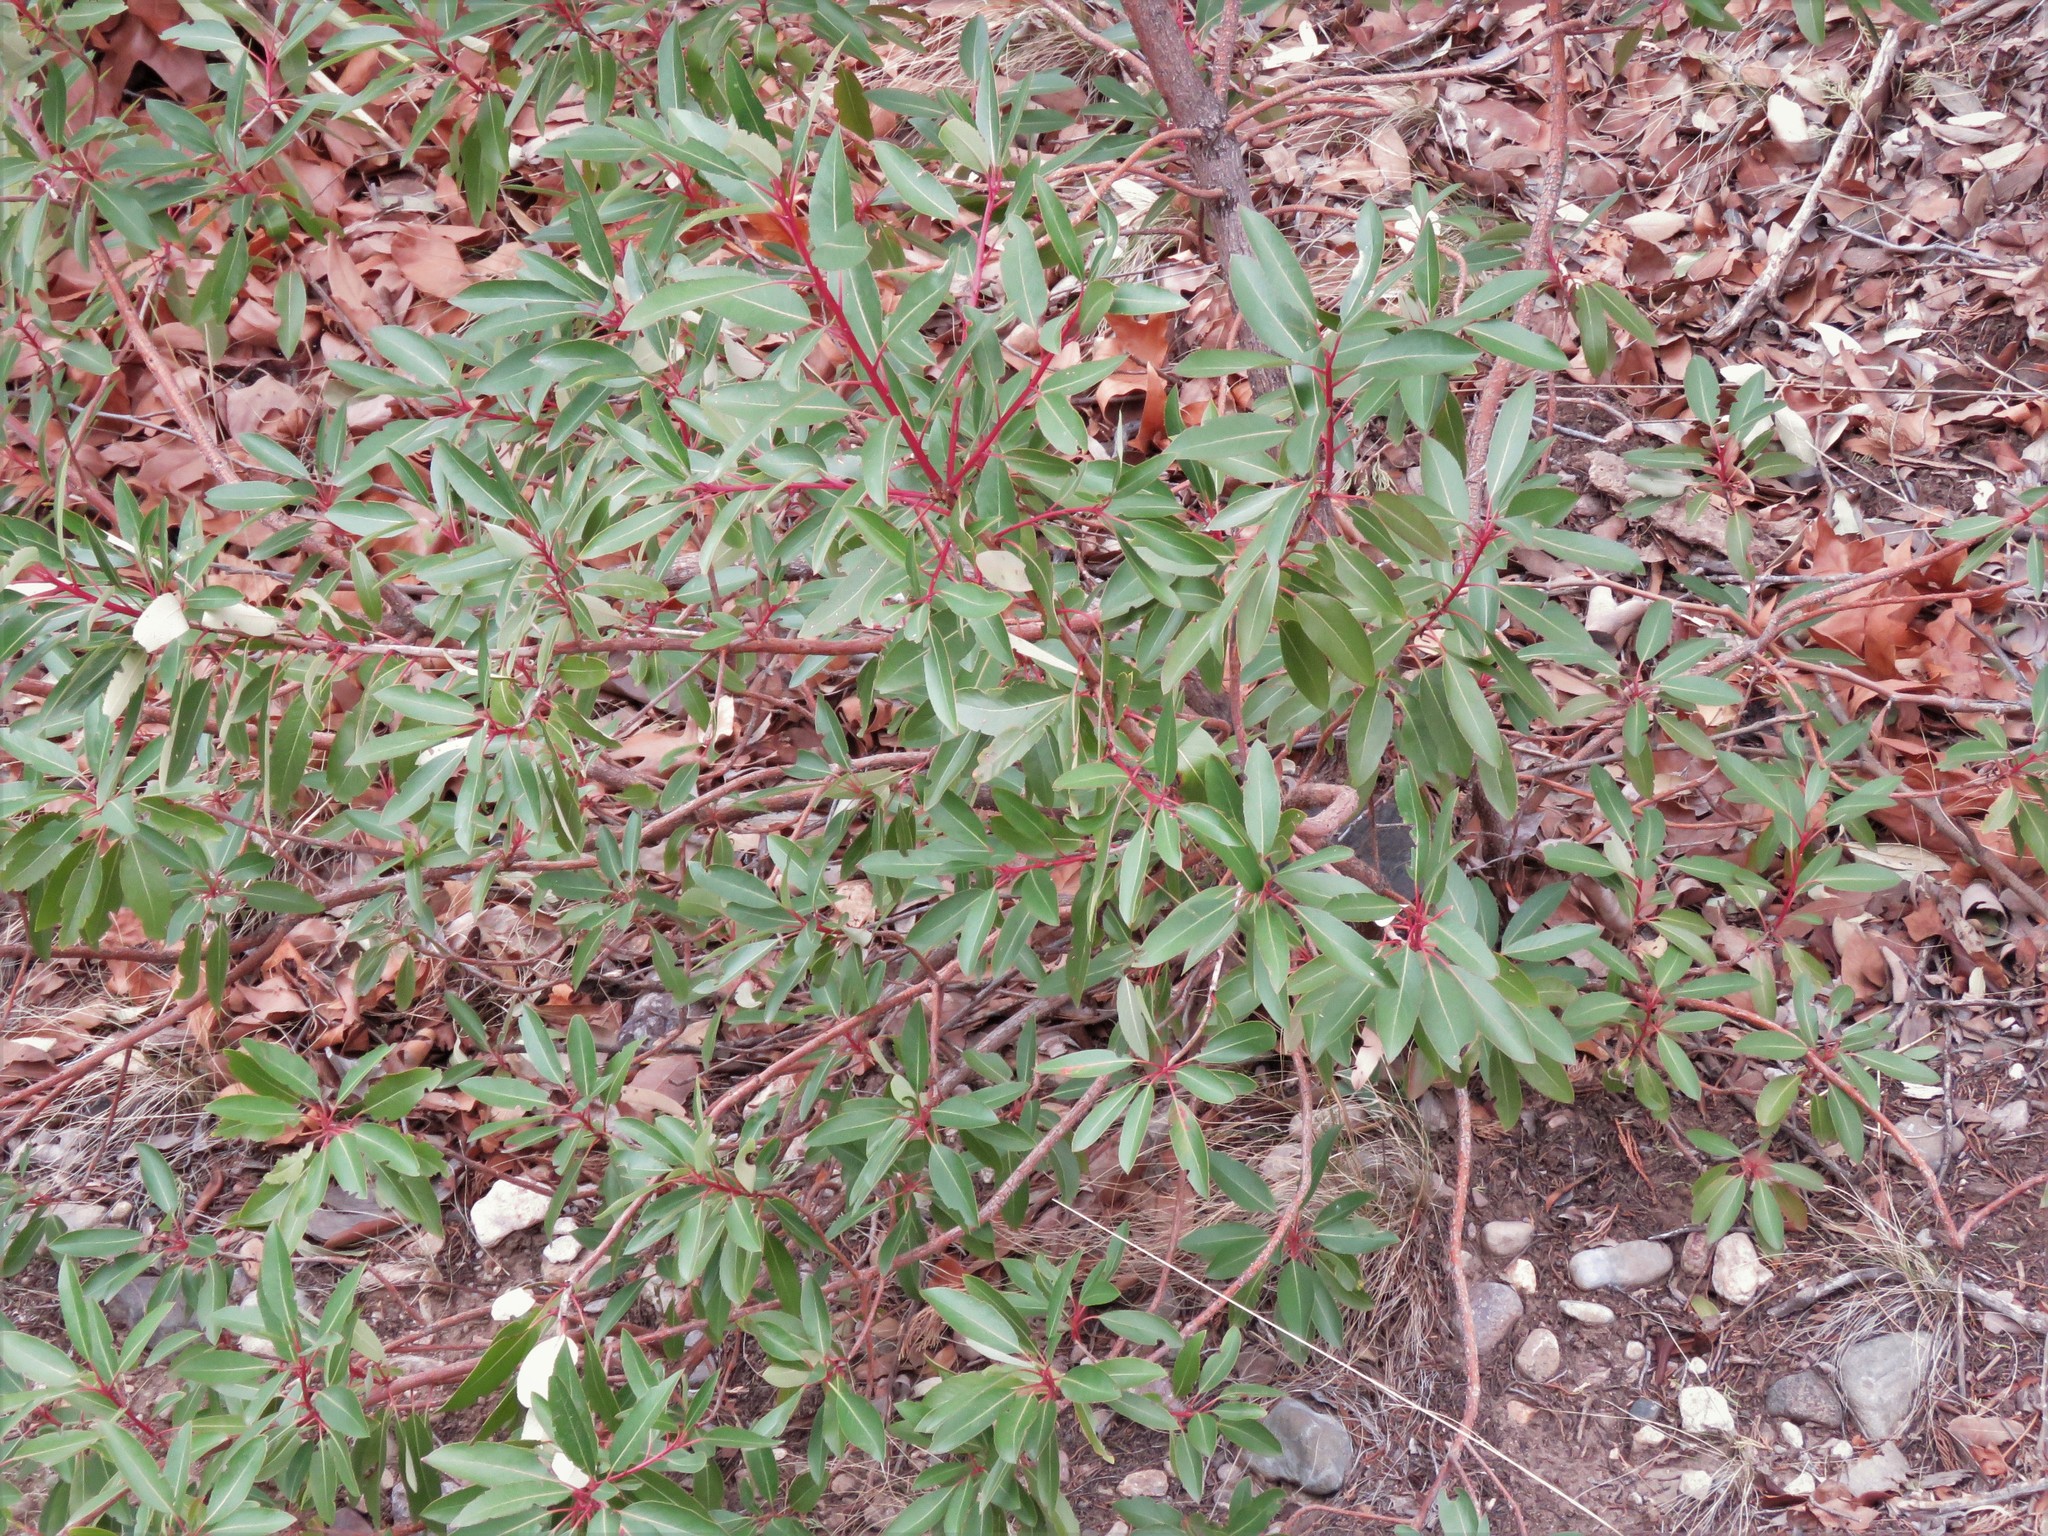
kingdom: Plantae
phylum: Tracheophyta
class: Magnoliopsida
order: Ericales
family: Ericaceae
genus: Arbutus
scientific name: Arbutus arizonica
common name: Arizona madrone
